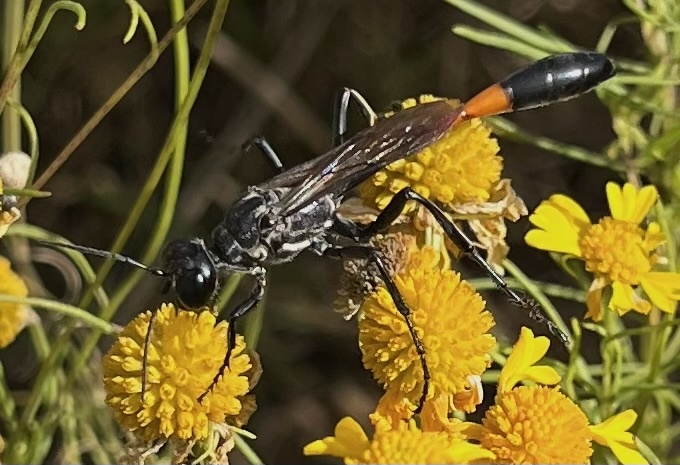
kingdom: Animalia
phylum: Arthropoda
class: Insecta
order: Hymenoptera
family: Sphecidae
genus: Ammophila
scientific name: Ammophila procera
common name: Common thread-waisted wasp
